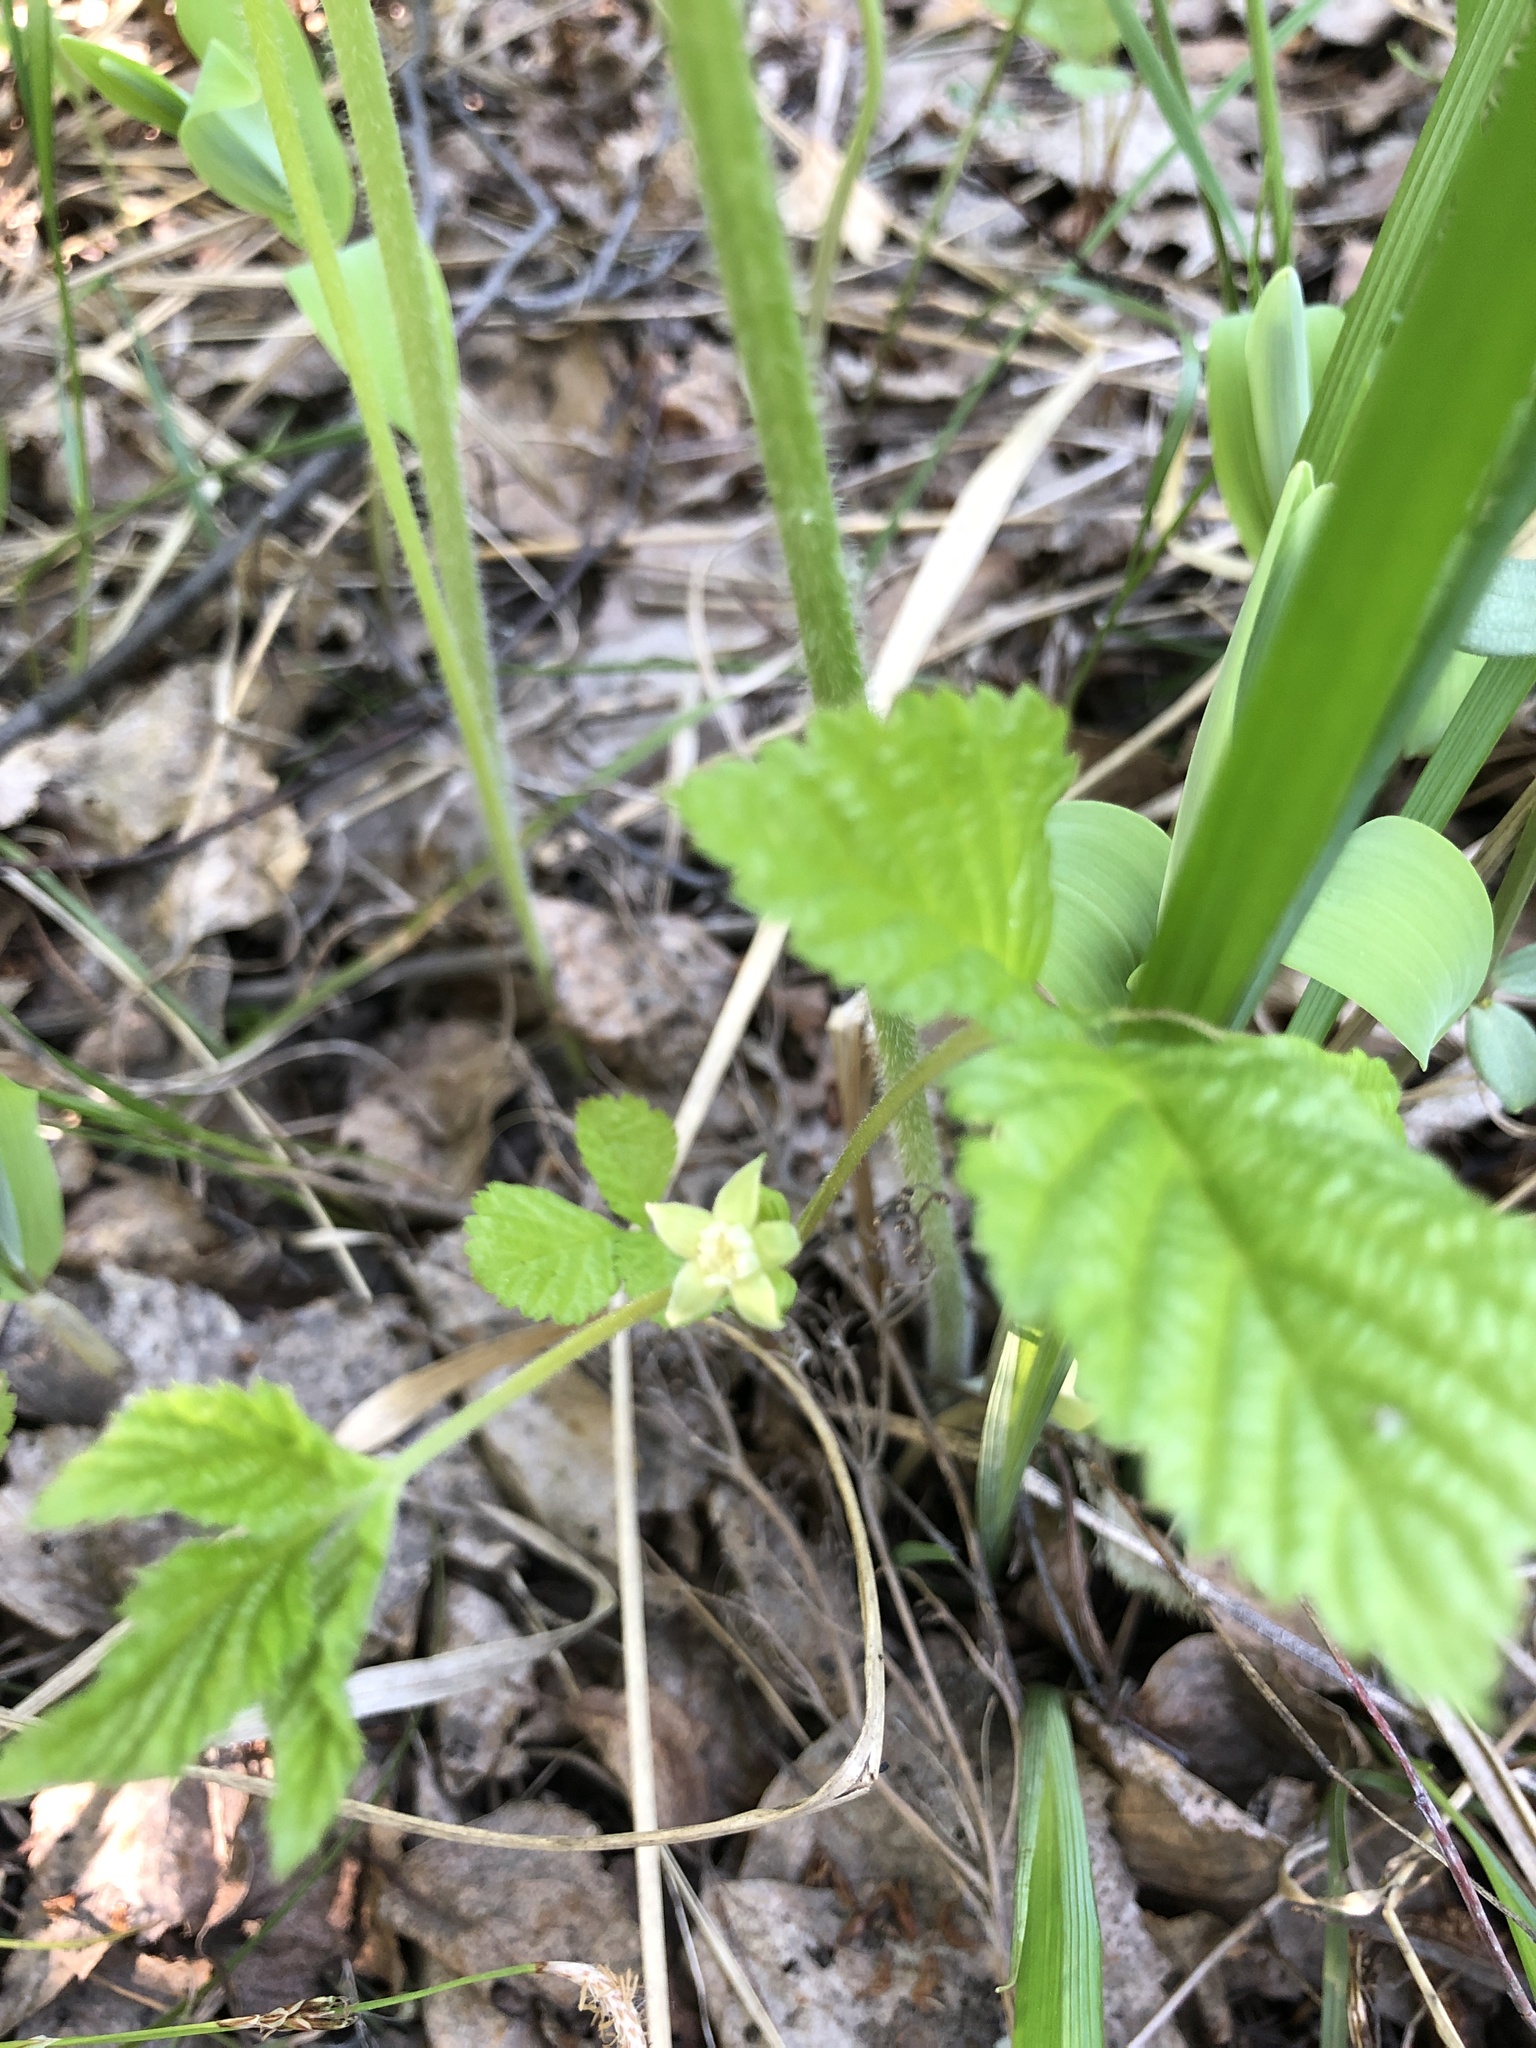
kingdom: Plantae
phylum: Tracheophyta
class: Magnoliopsida
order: Rosales
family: Rosaceae
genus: Rubus
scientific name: Rubus saxatilis
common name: Stone bramble
